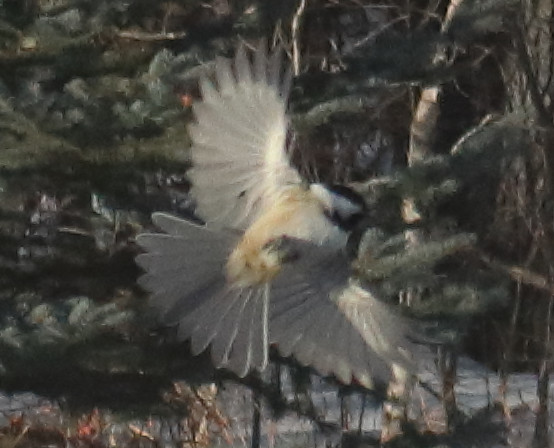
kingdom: Animalia
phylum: Chordata
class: Aves
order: Passeriformes
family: Paridae
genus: Poecile
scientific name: Poecile atricapillus
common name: Black-capped chickadee
